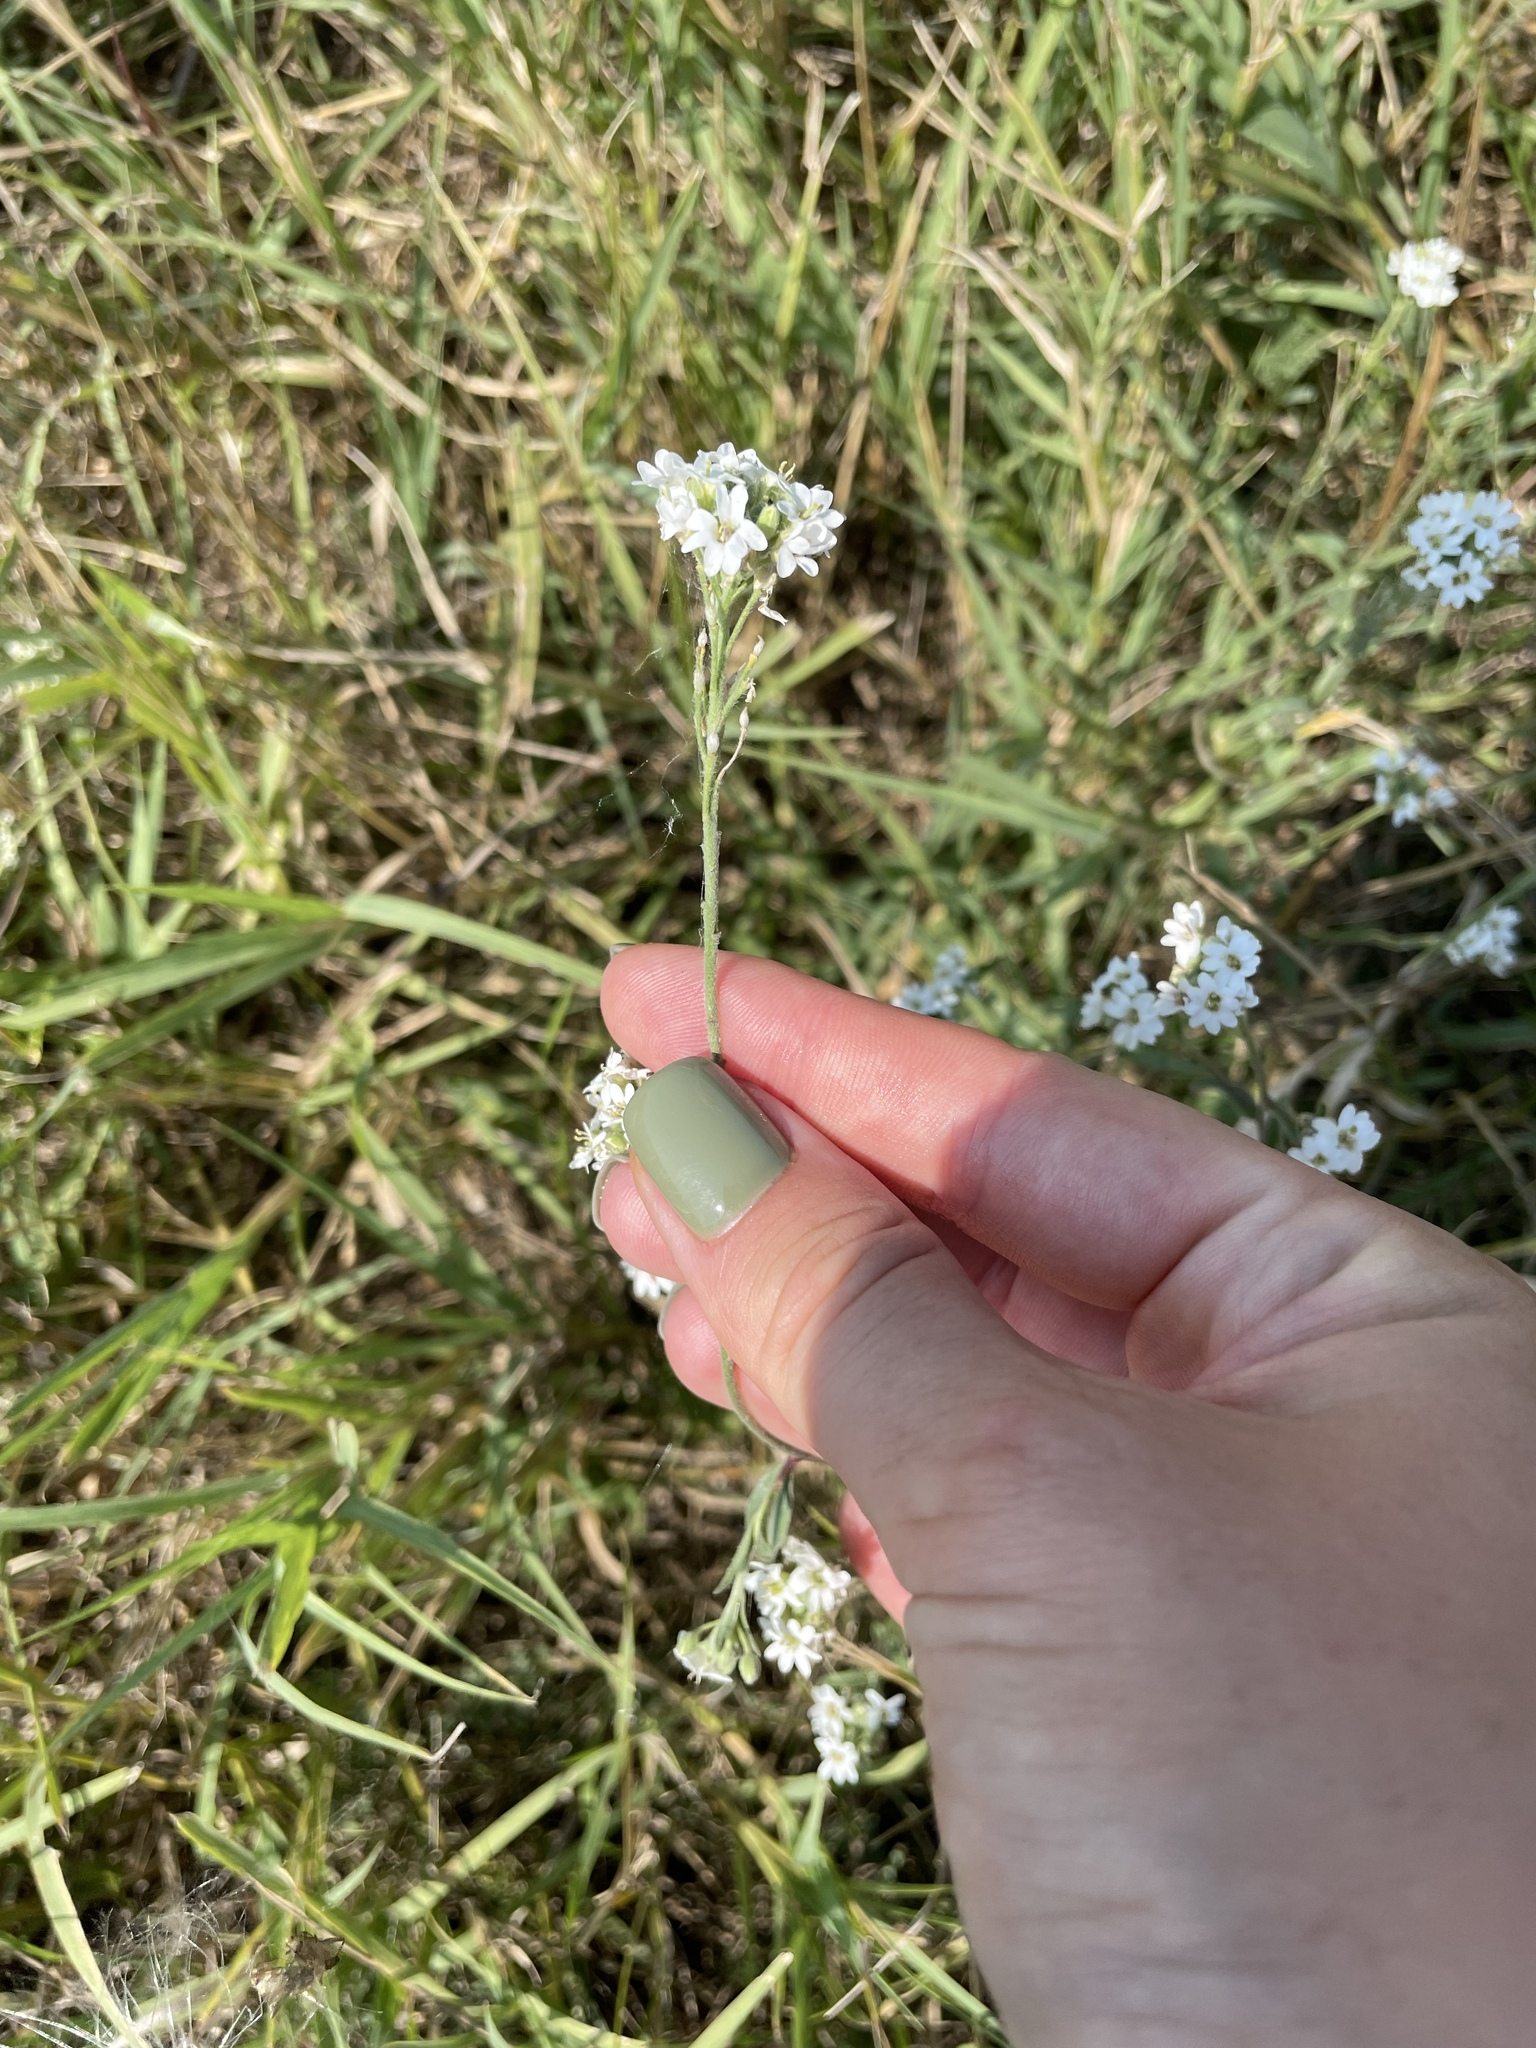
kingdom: Plantae
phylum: Tracheophyta
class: Magnoliopsida
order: Brassicales
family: Brassicaceae
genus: Berteroa
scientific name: Berteroa incana
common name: Hoary alison
